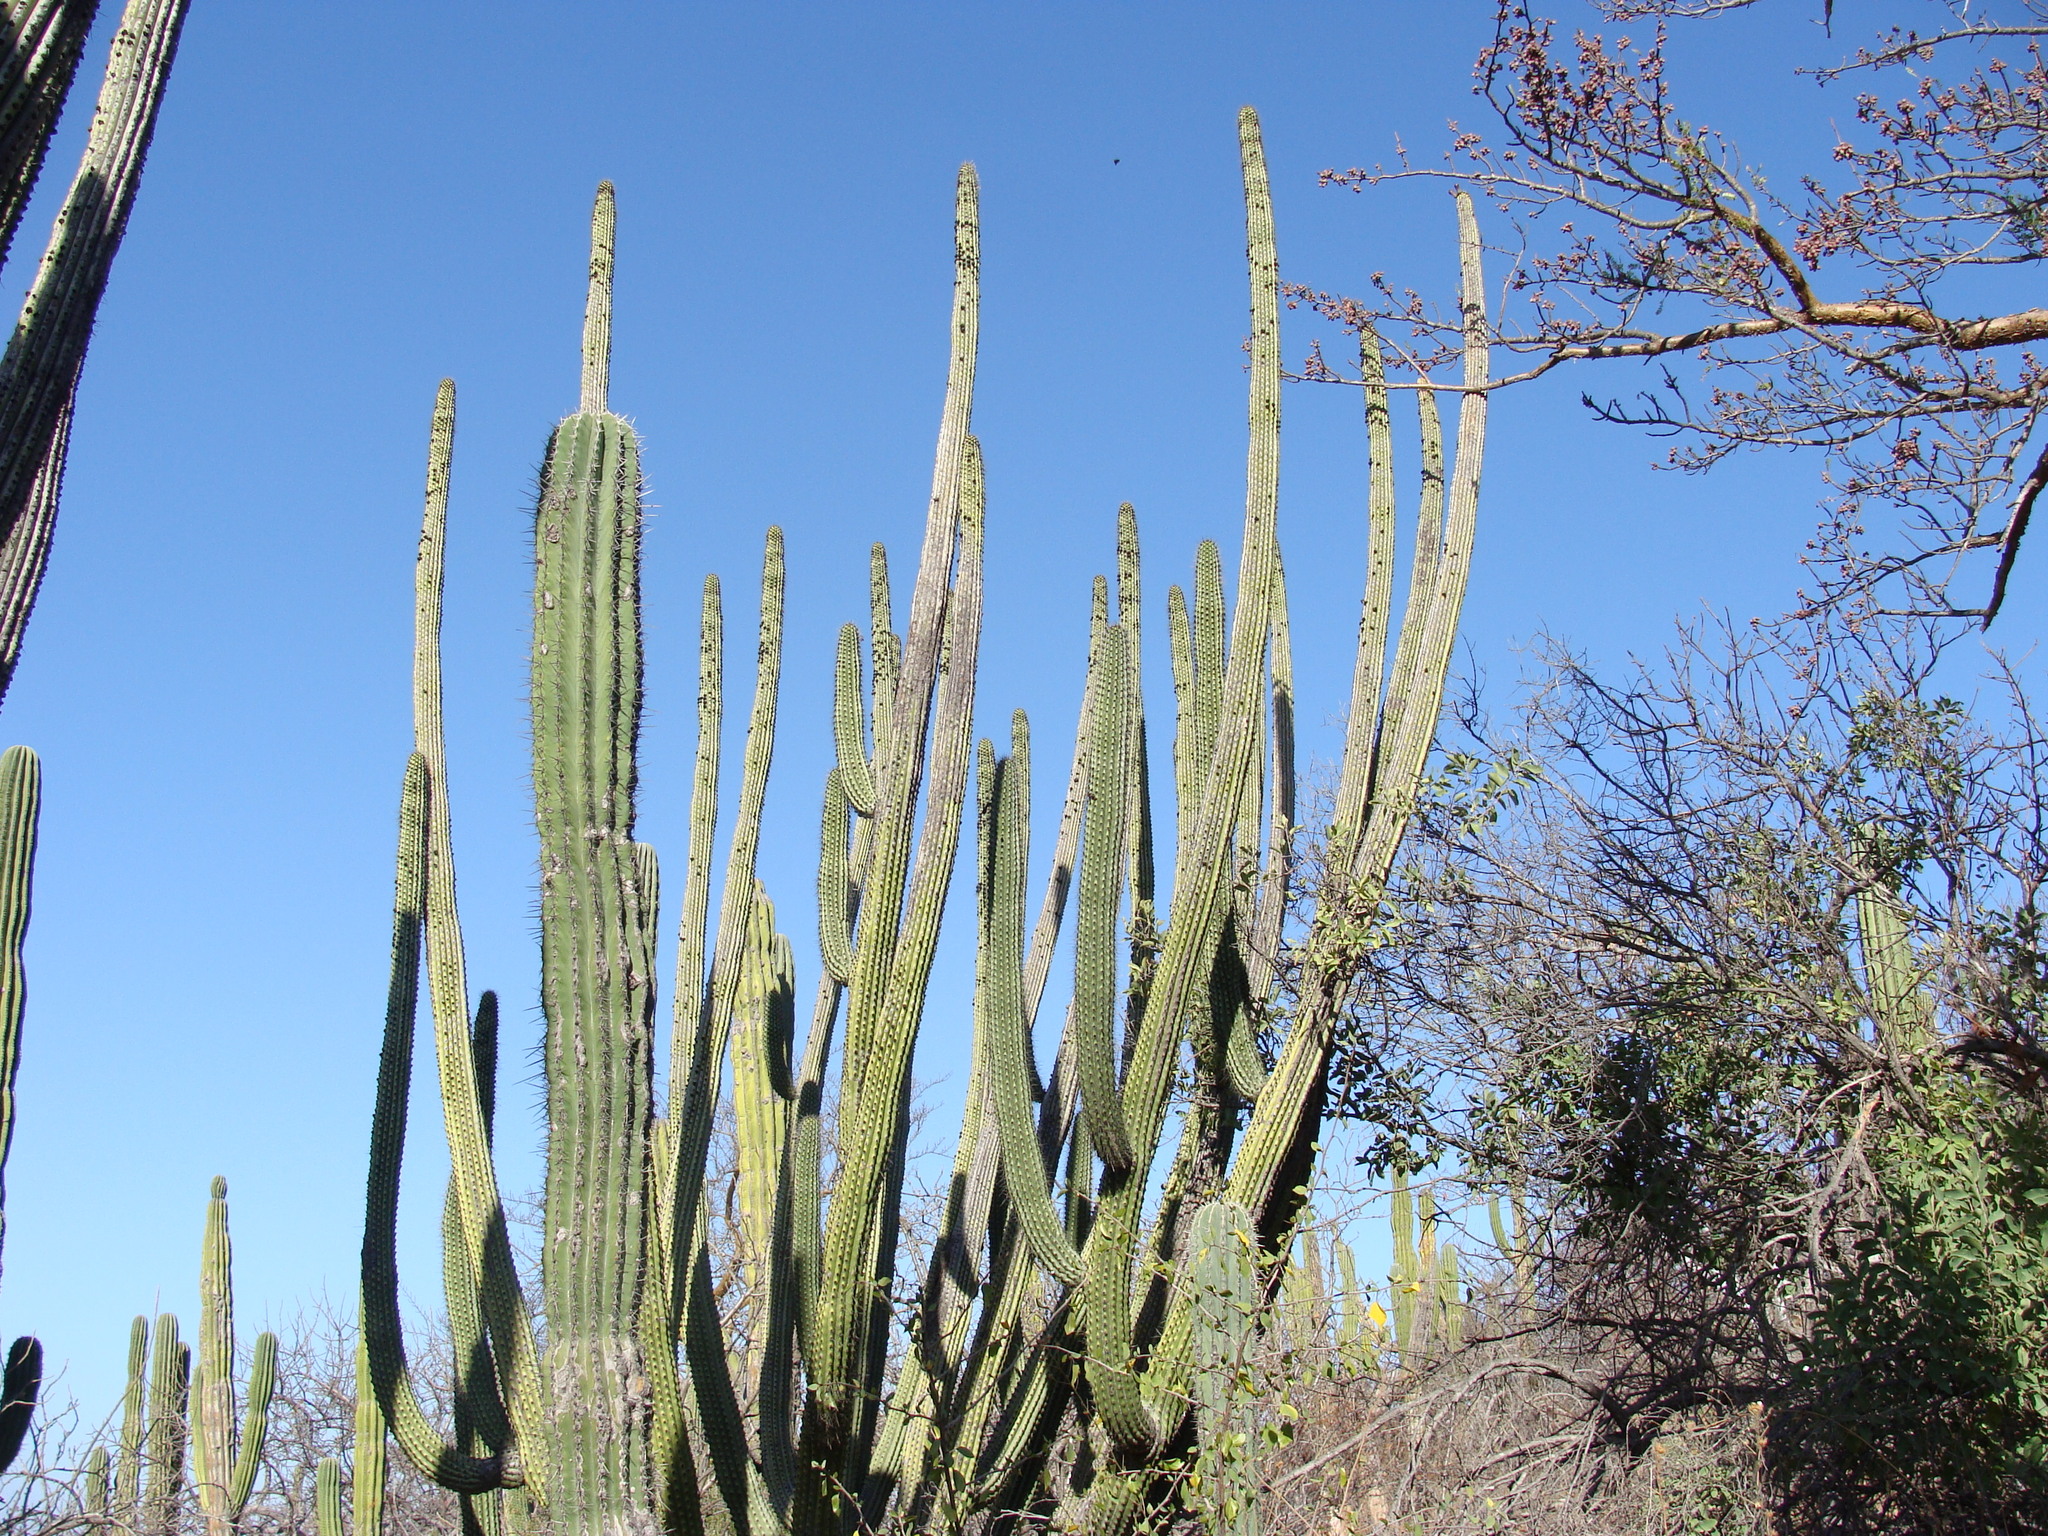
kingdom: Plantae
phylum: Tracheophyta
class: Magnoliopsida
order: Caryophyllales
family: Cactaceae
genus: Stenocereus
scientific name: Stenocereus thurberi
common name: Organ pipe cactus
